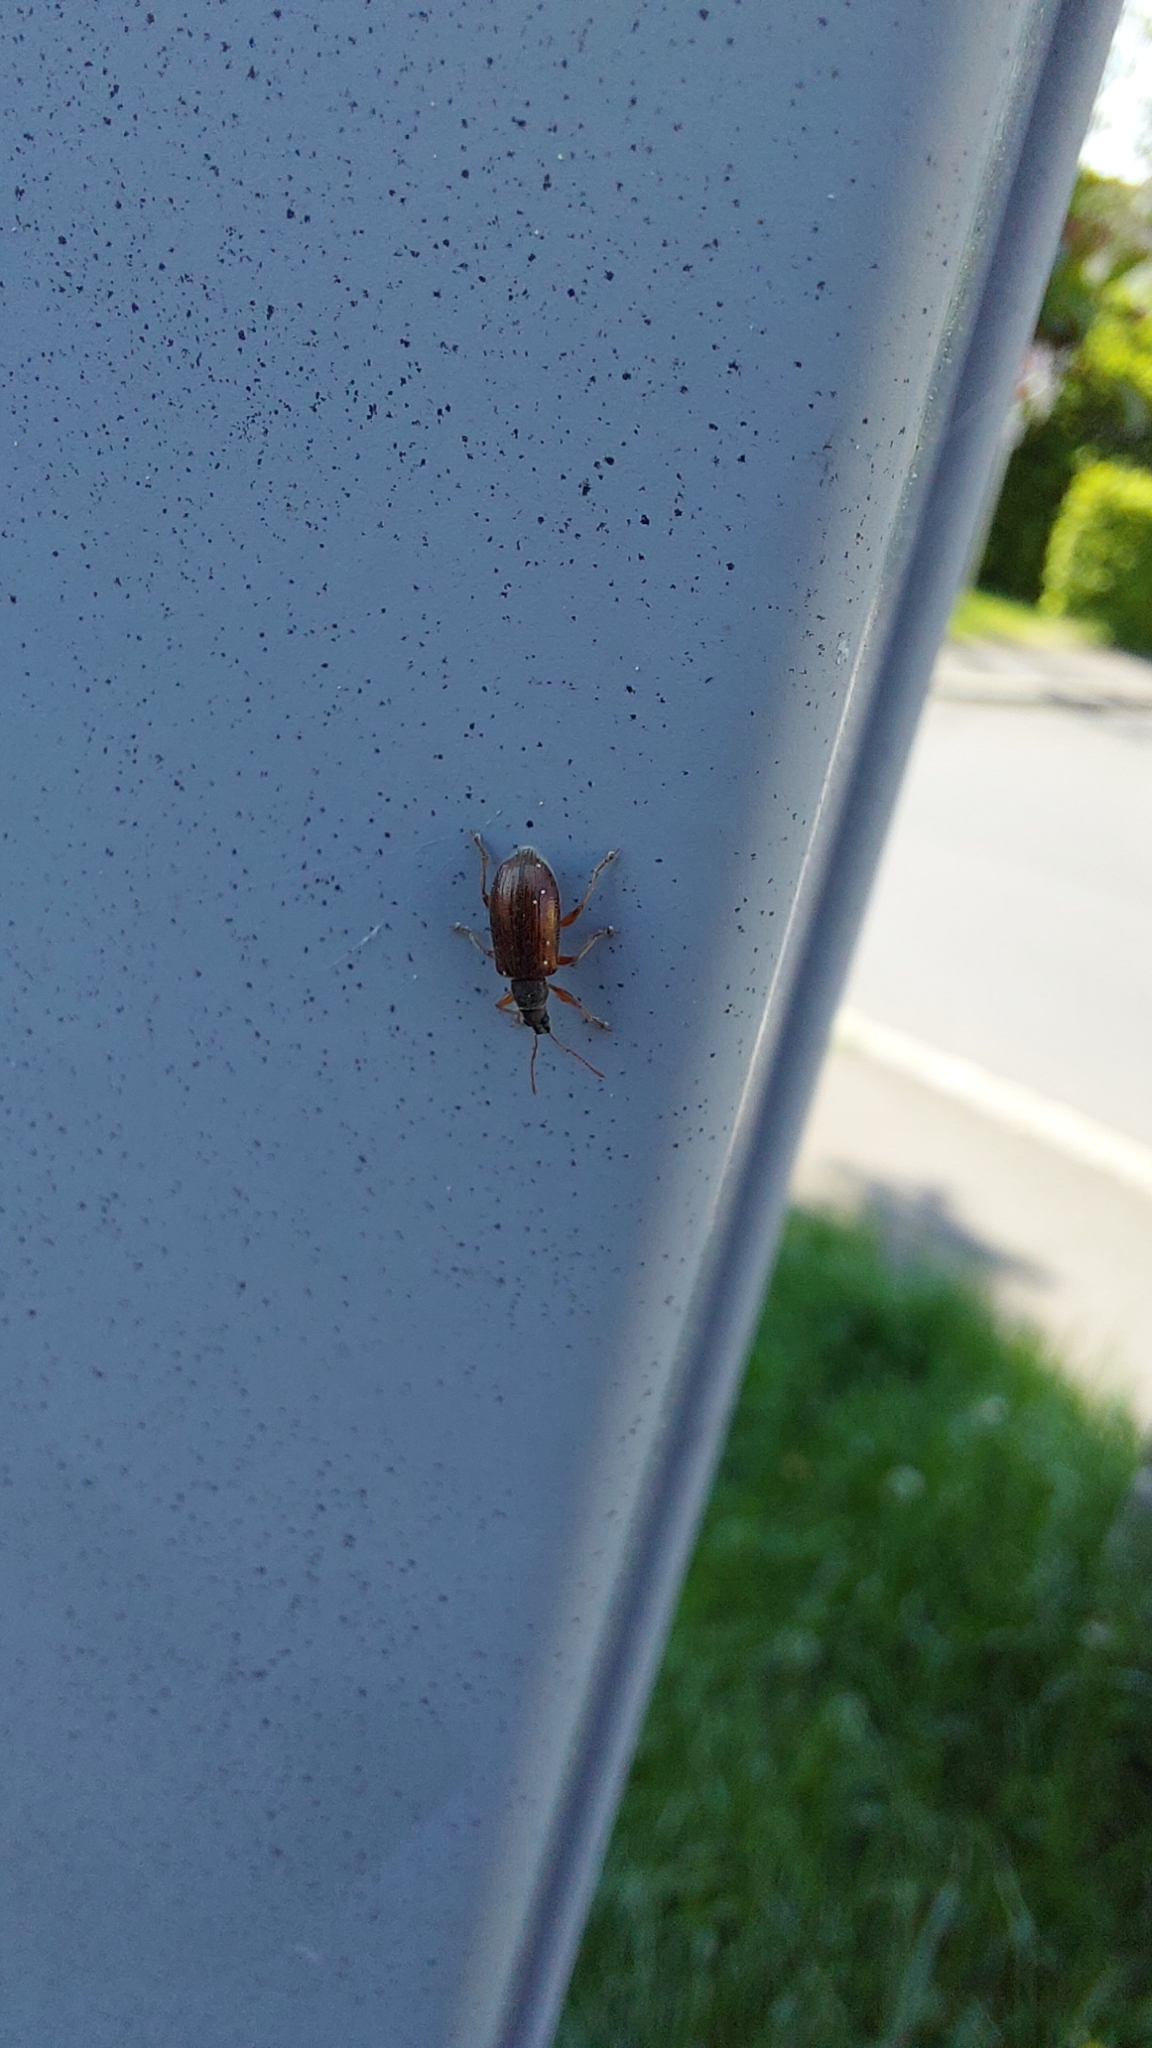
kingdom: Animalia
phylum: Arthropoda
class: Insecta
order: Coleoptera
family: Curculionidae
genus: Phyllobius
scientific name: Phyllobius oblongus
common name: Brown leaf weevil
